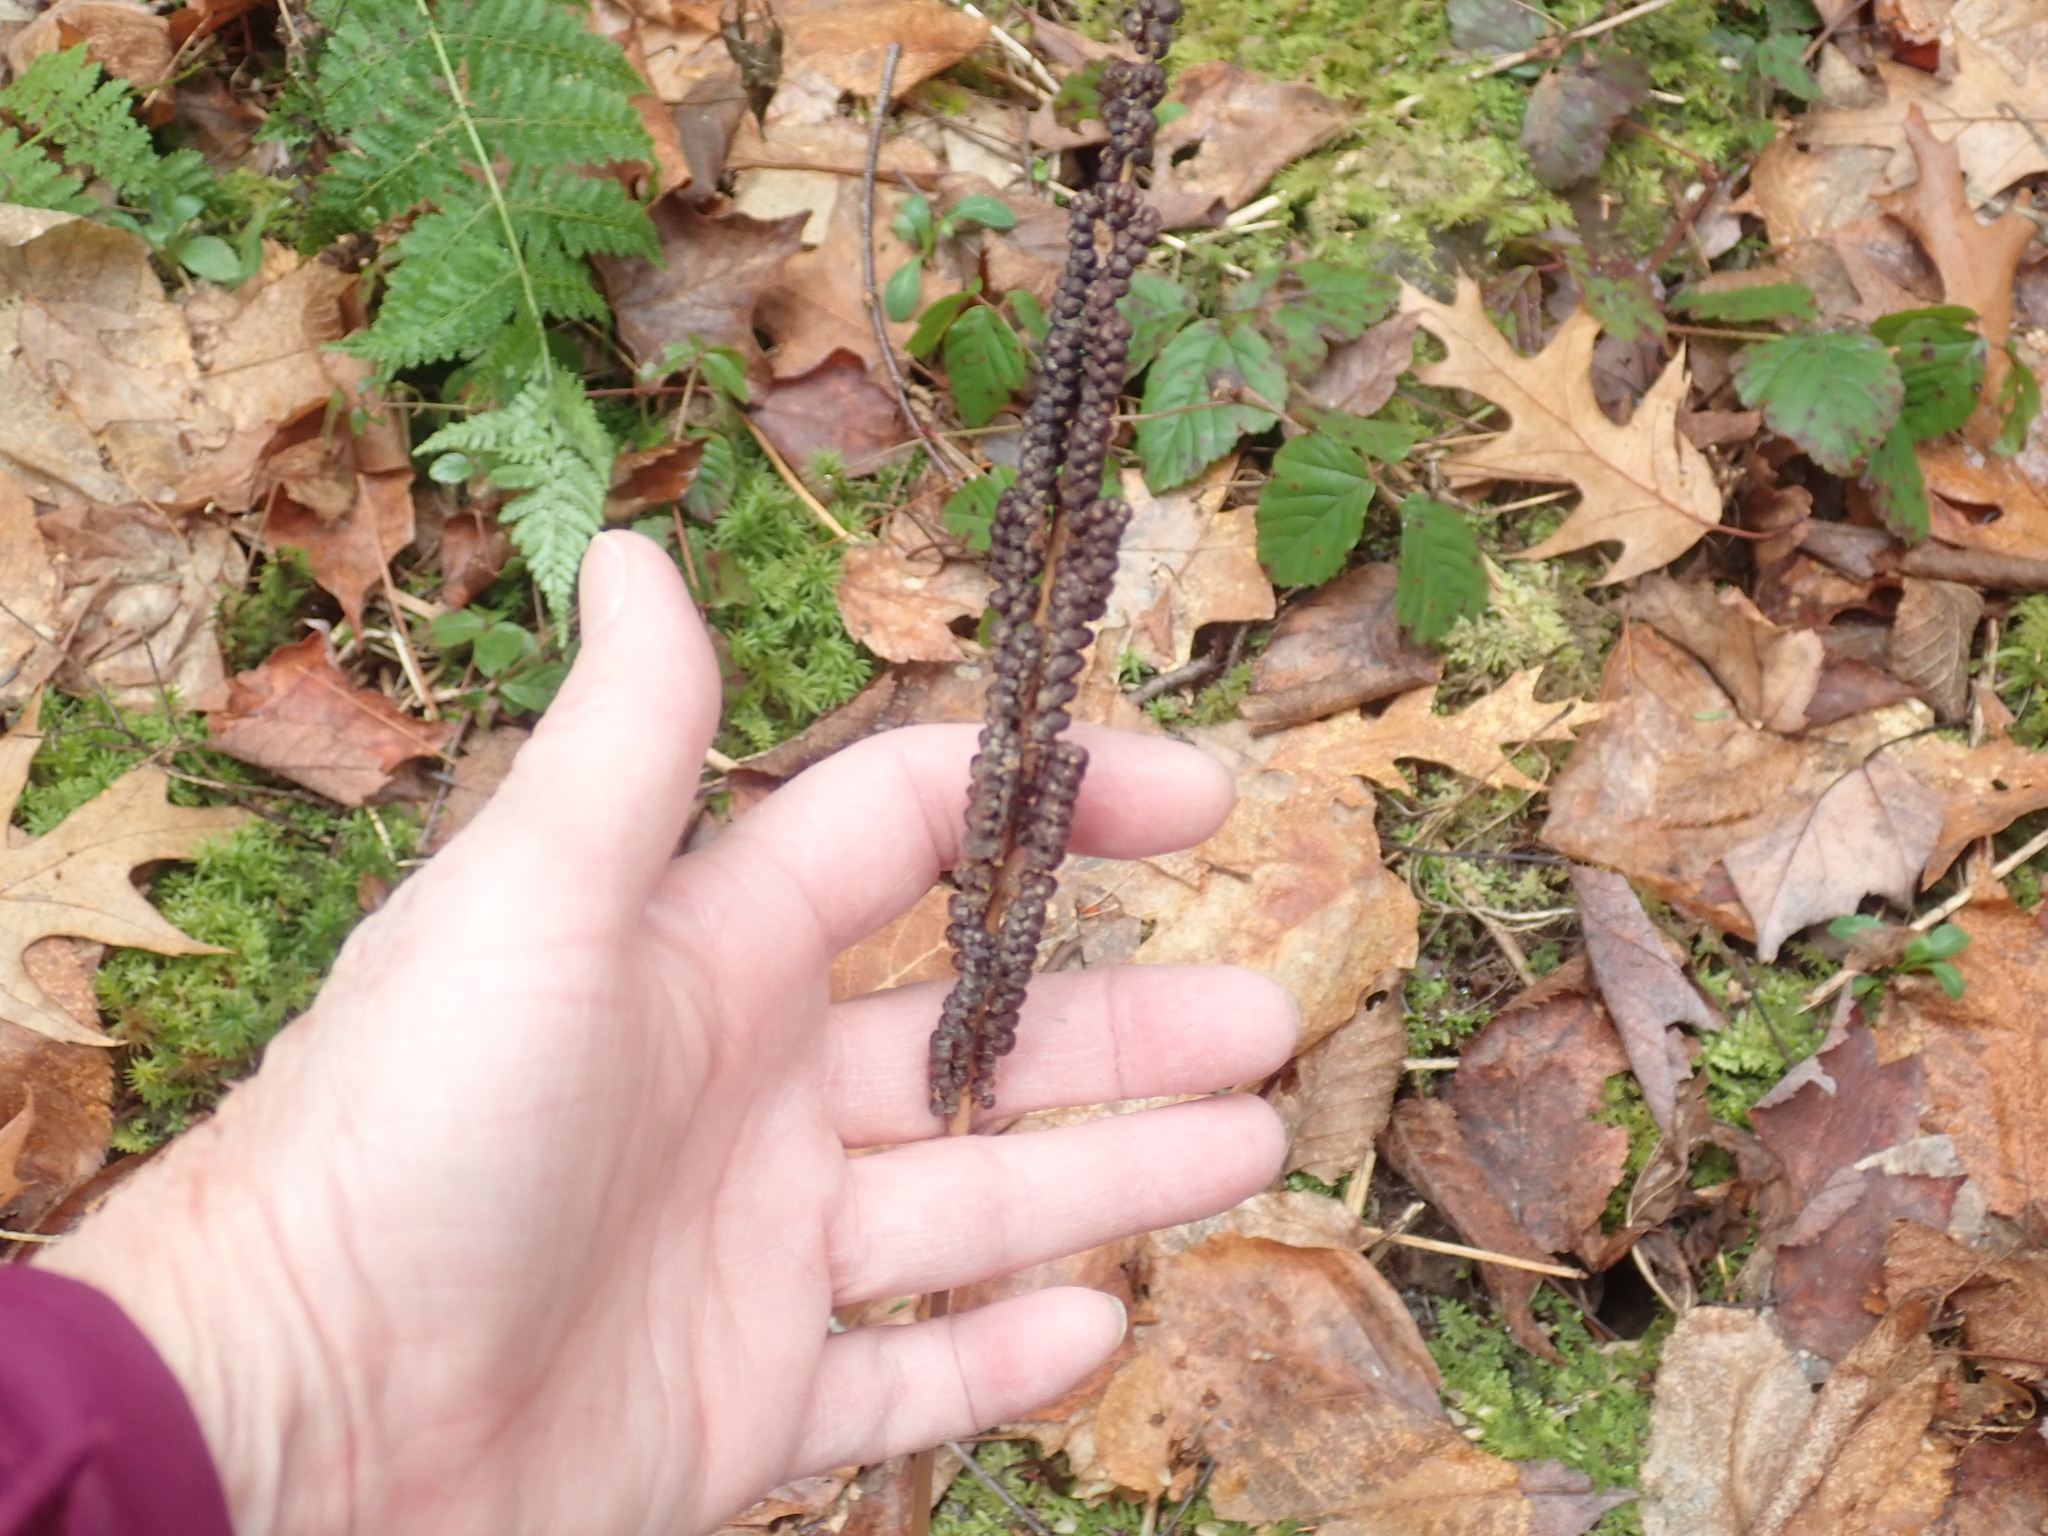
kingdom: Plantae
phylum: Tracheophyta
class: Polypodiopsida
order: Polypodiales
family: Onocleaceae
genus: Onoclea
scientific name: Onoclea sensibilis
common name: Sensitive fern
